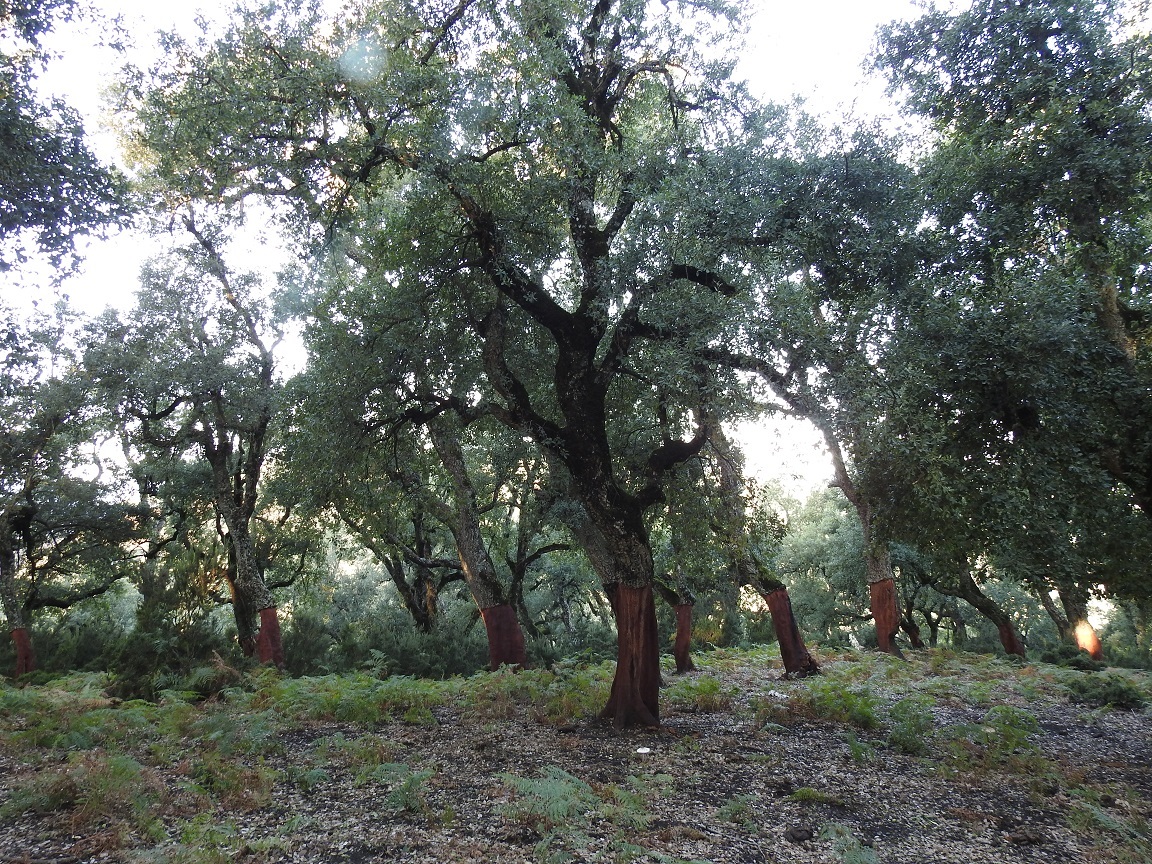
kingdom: Plantae
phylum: Tracheophyta
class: Magnoliopsida
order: Fagales
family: Fagaceae
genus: Quercus
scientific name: Quercus suber
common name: Cork oak
